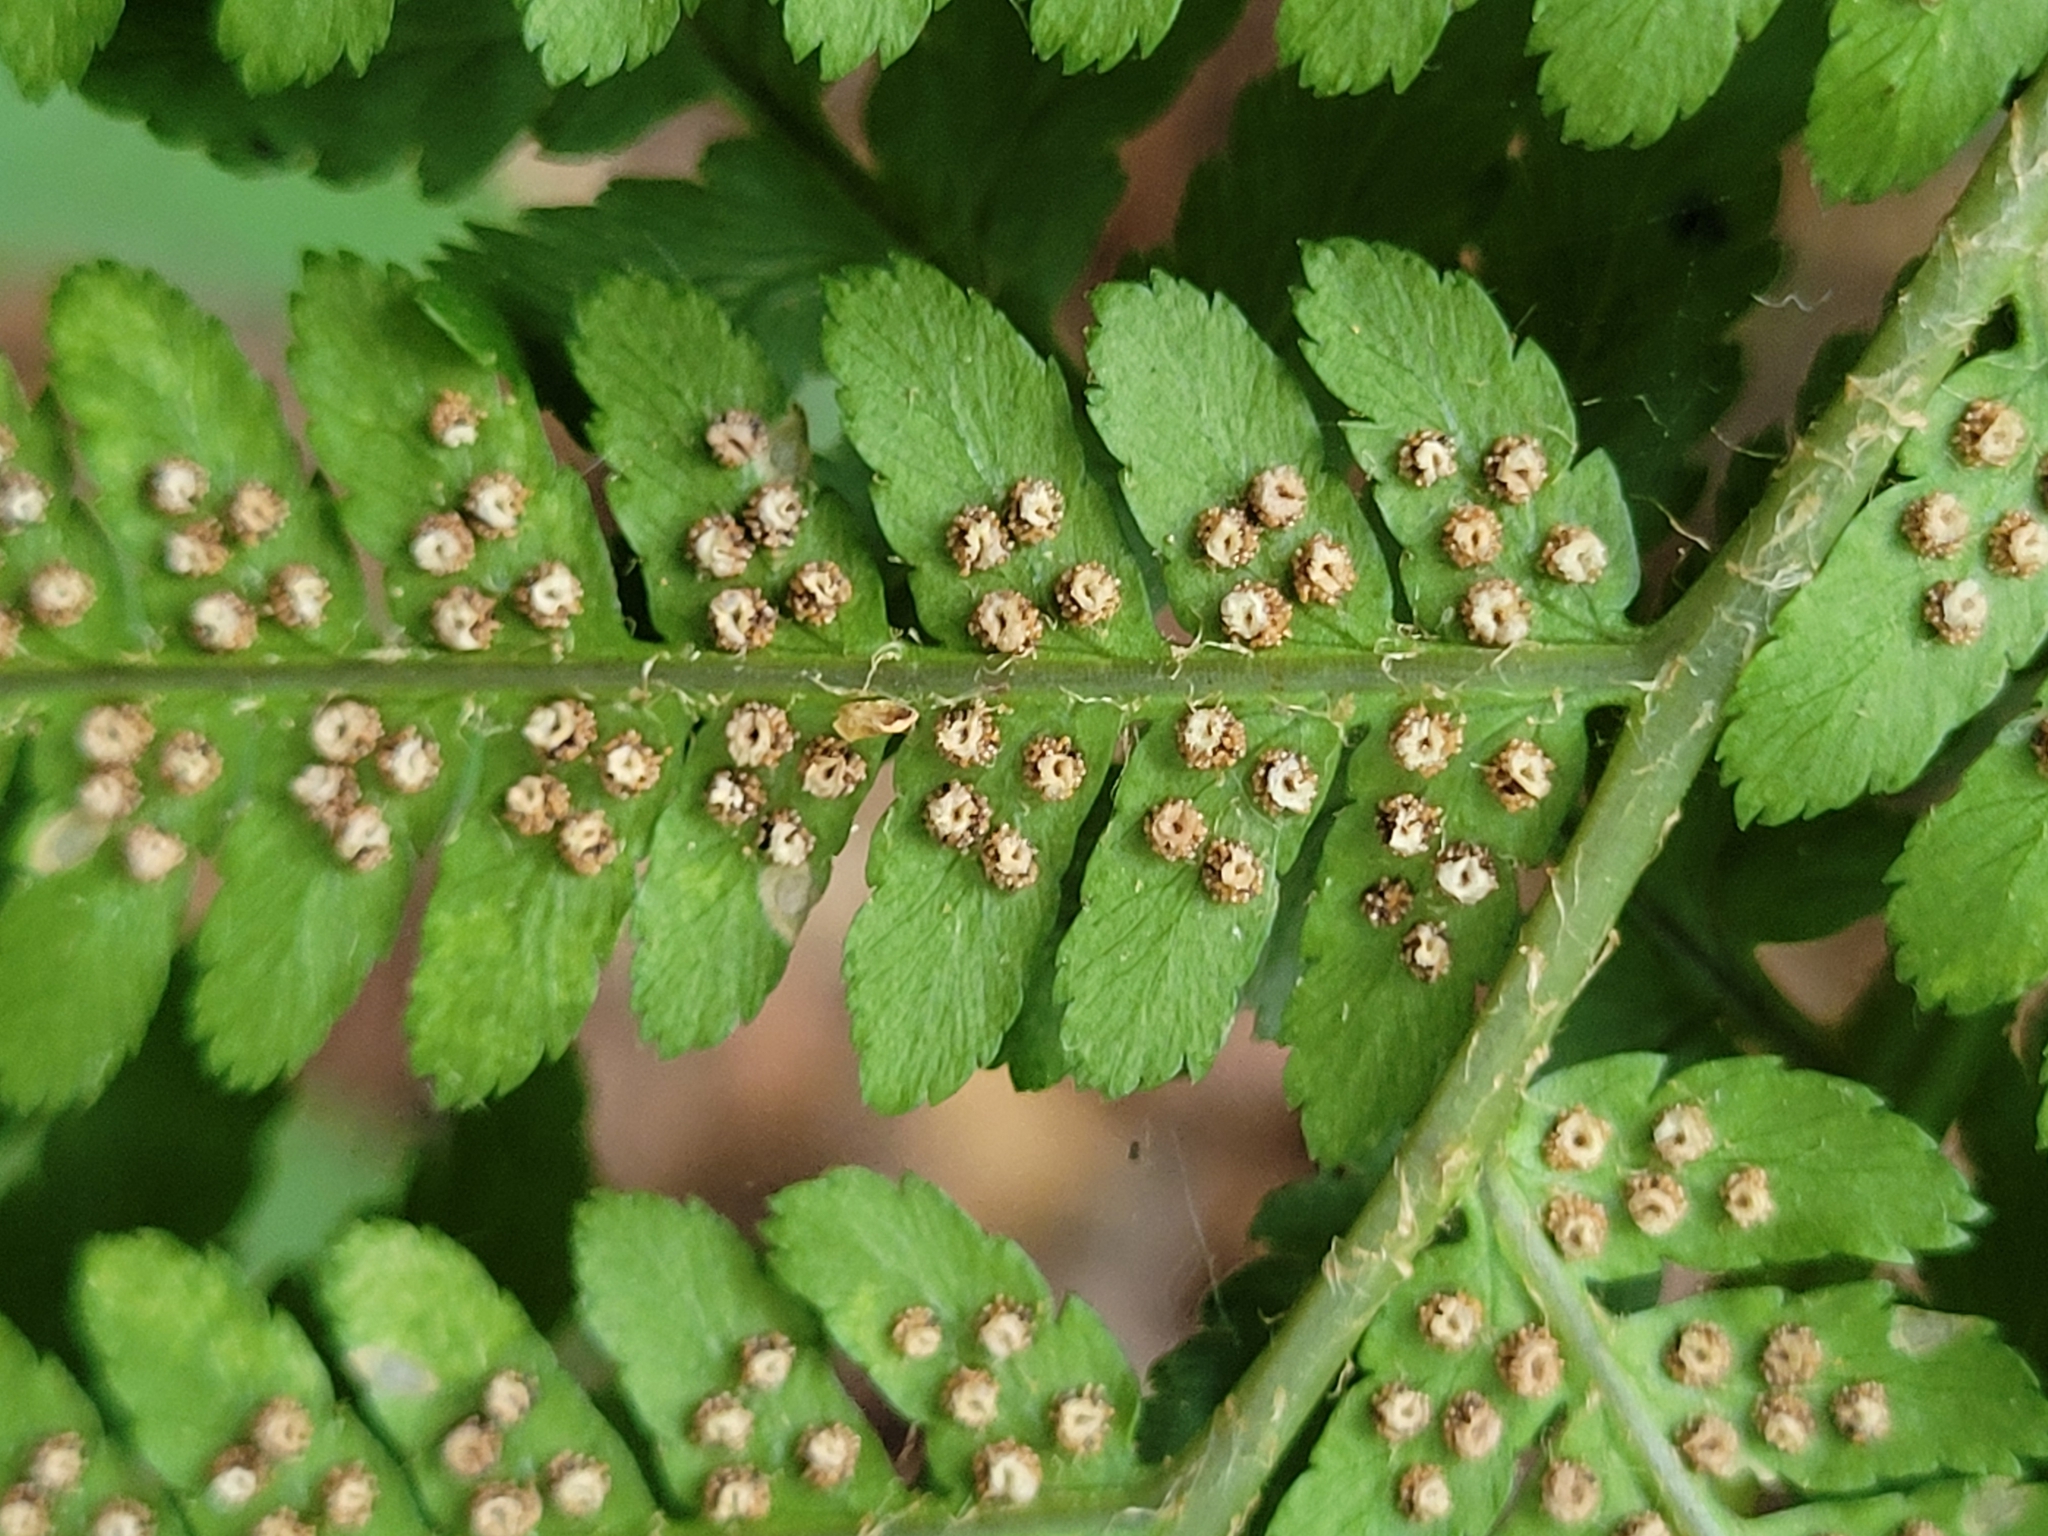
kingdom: Plantae
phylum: Tracheophyta
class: Polypodiopsida
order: Polypodiales
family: Dryopteridaceae
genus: Dryopteris
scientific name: Dryopteris filix-mas
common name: Male fern
